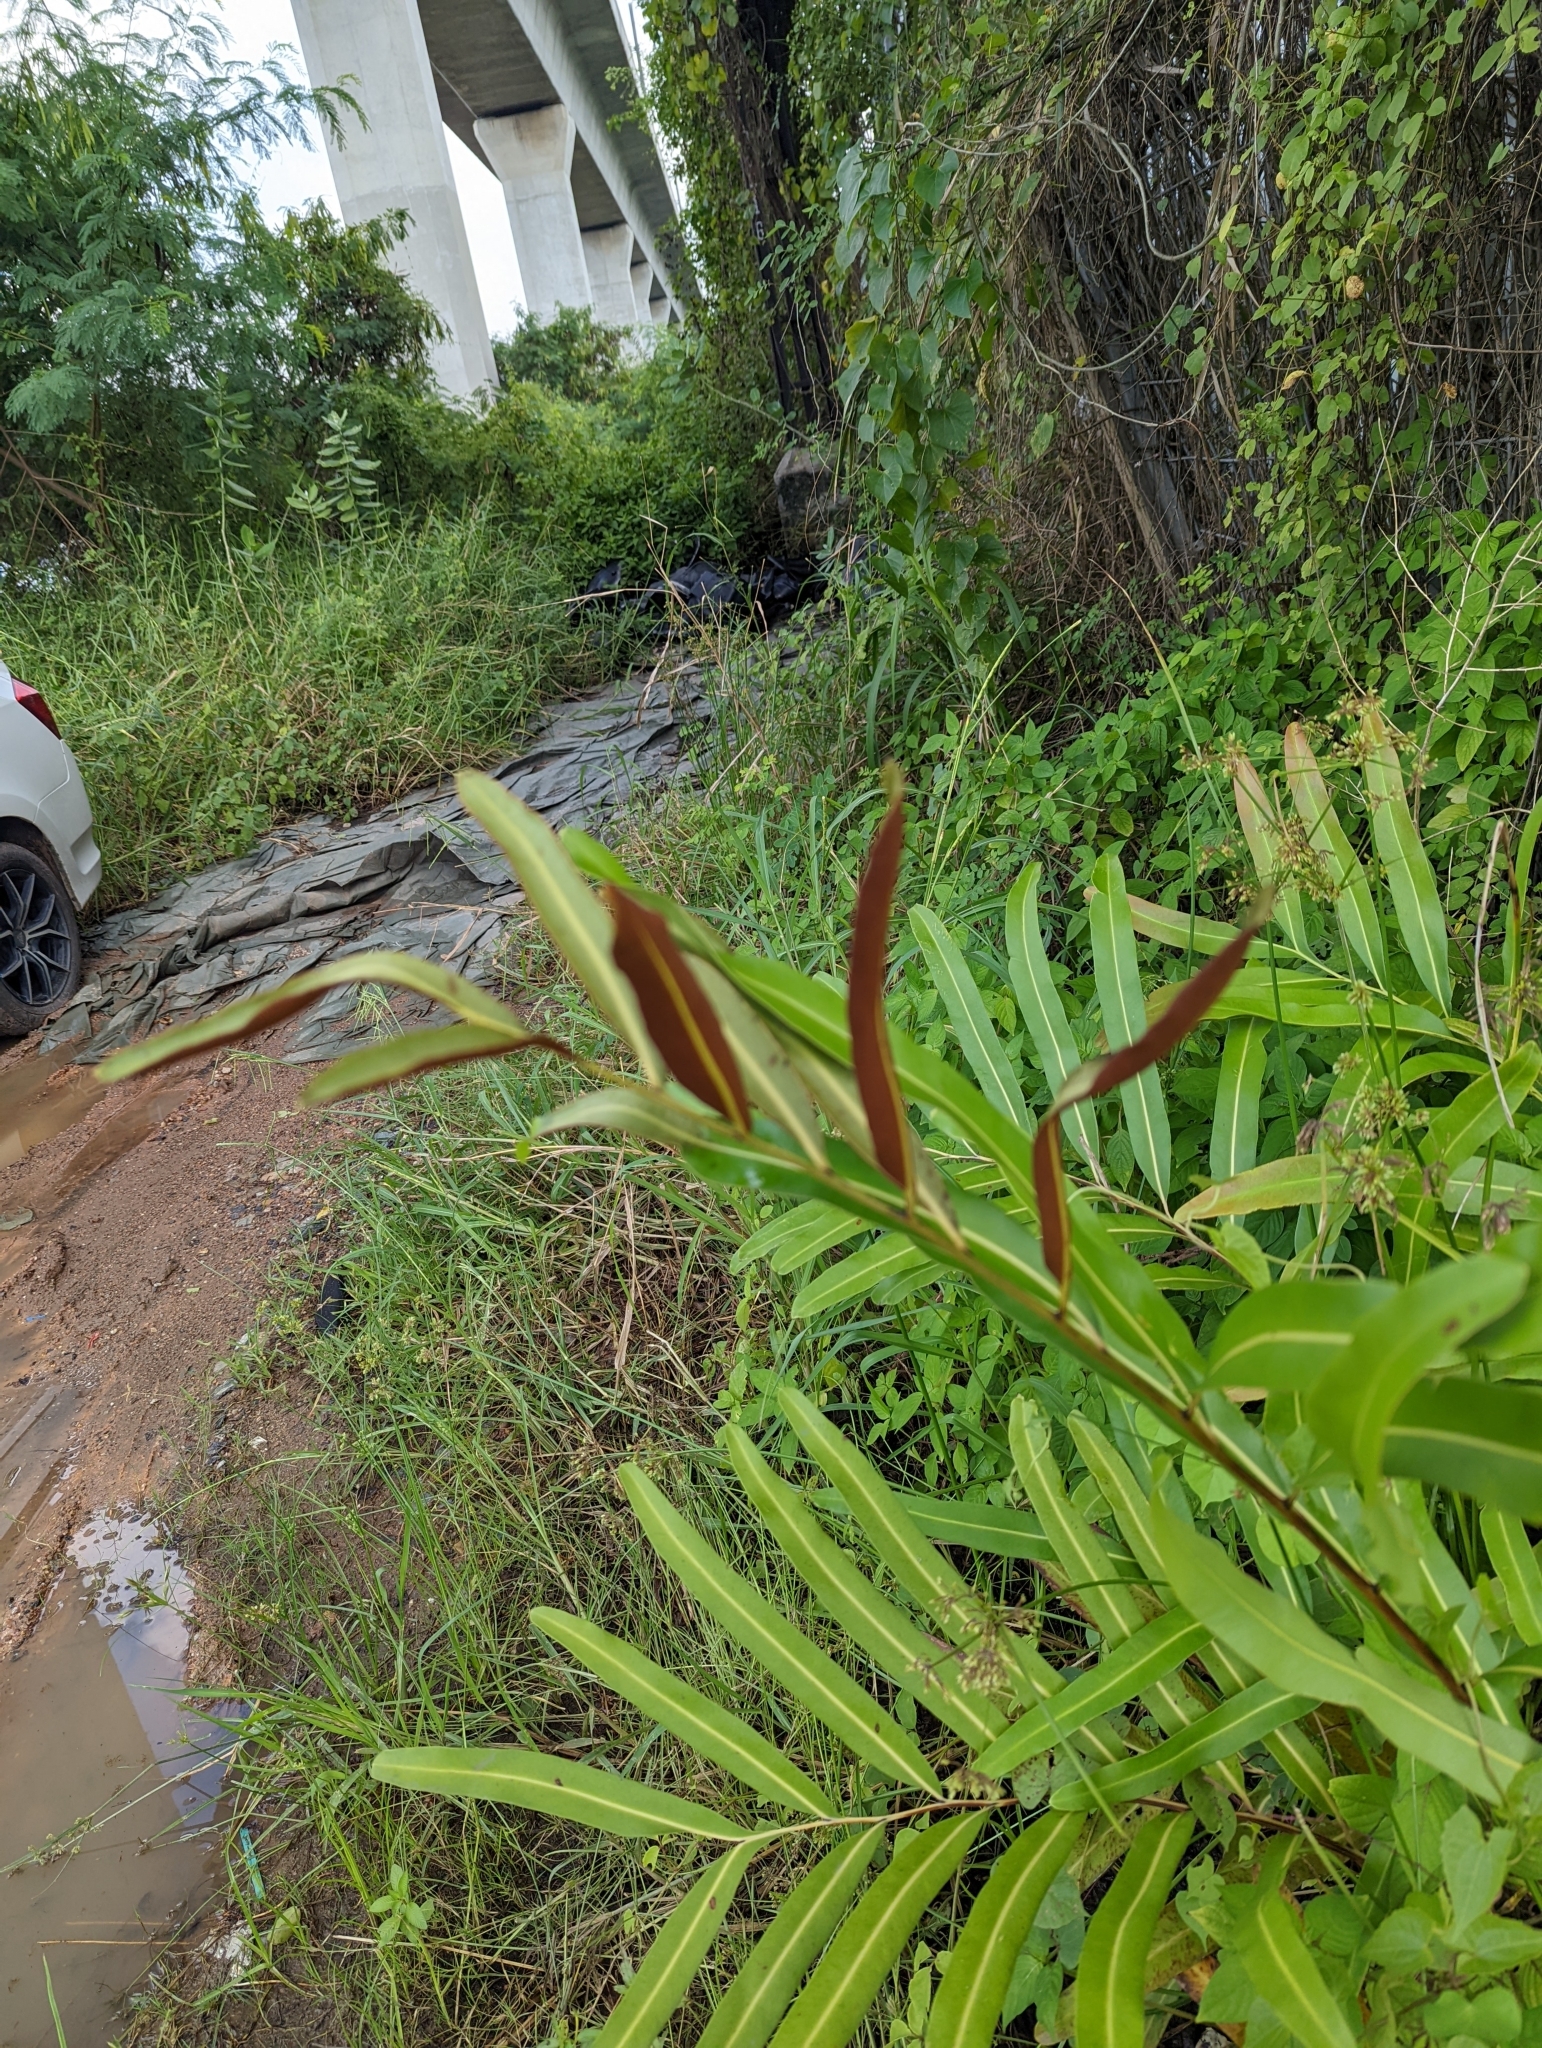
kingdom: Plantae
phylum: Tracheophyta
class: Polypodiopsida
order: Polypodiales
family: Pteridaceae
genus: Acrostichum
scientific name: Acrostichum aureum
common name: Leather fern
